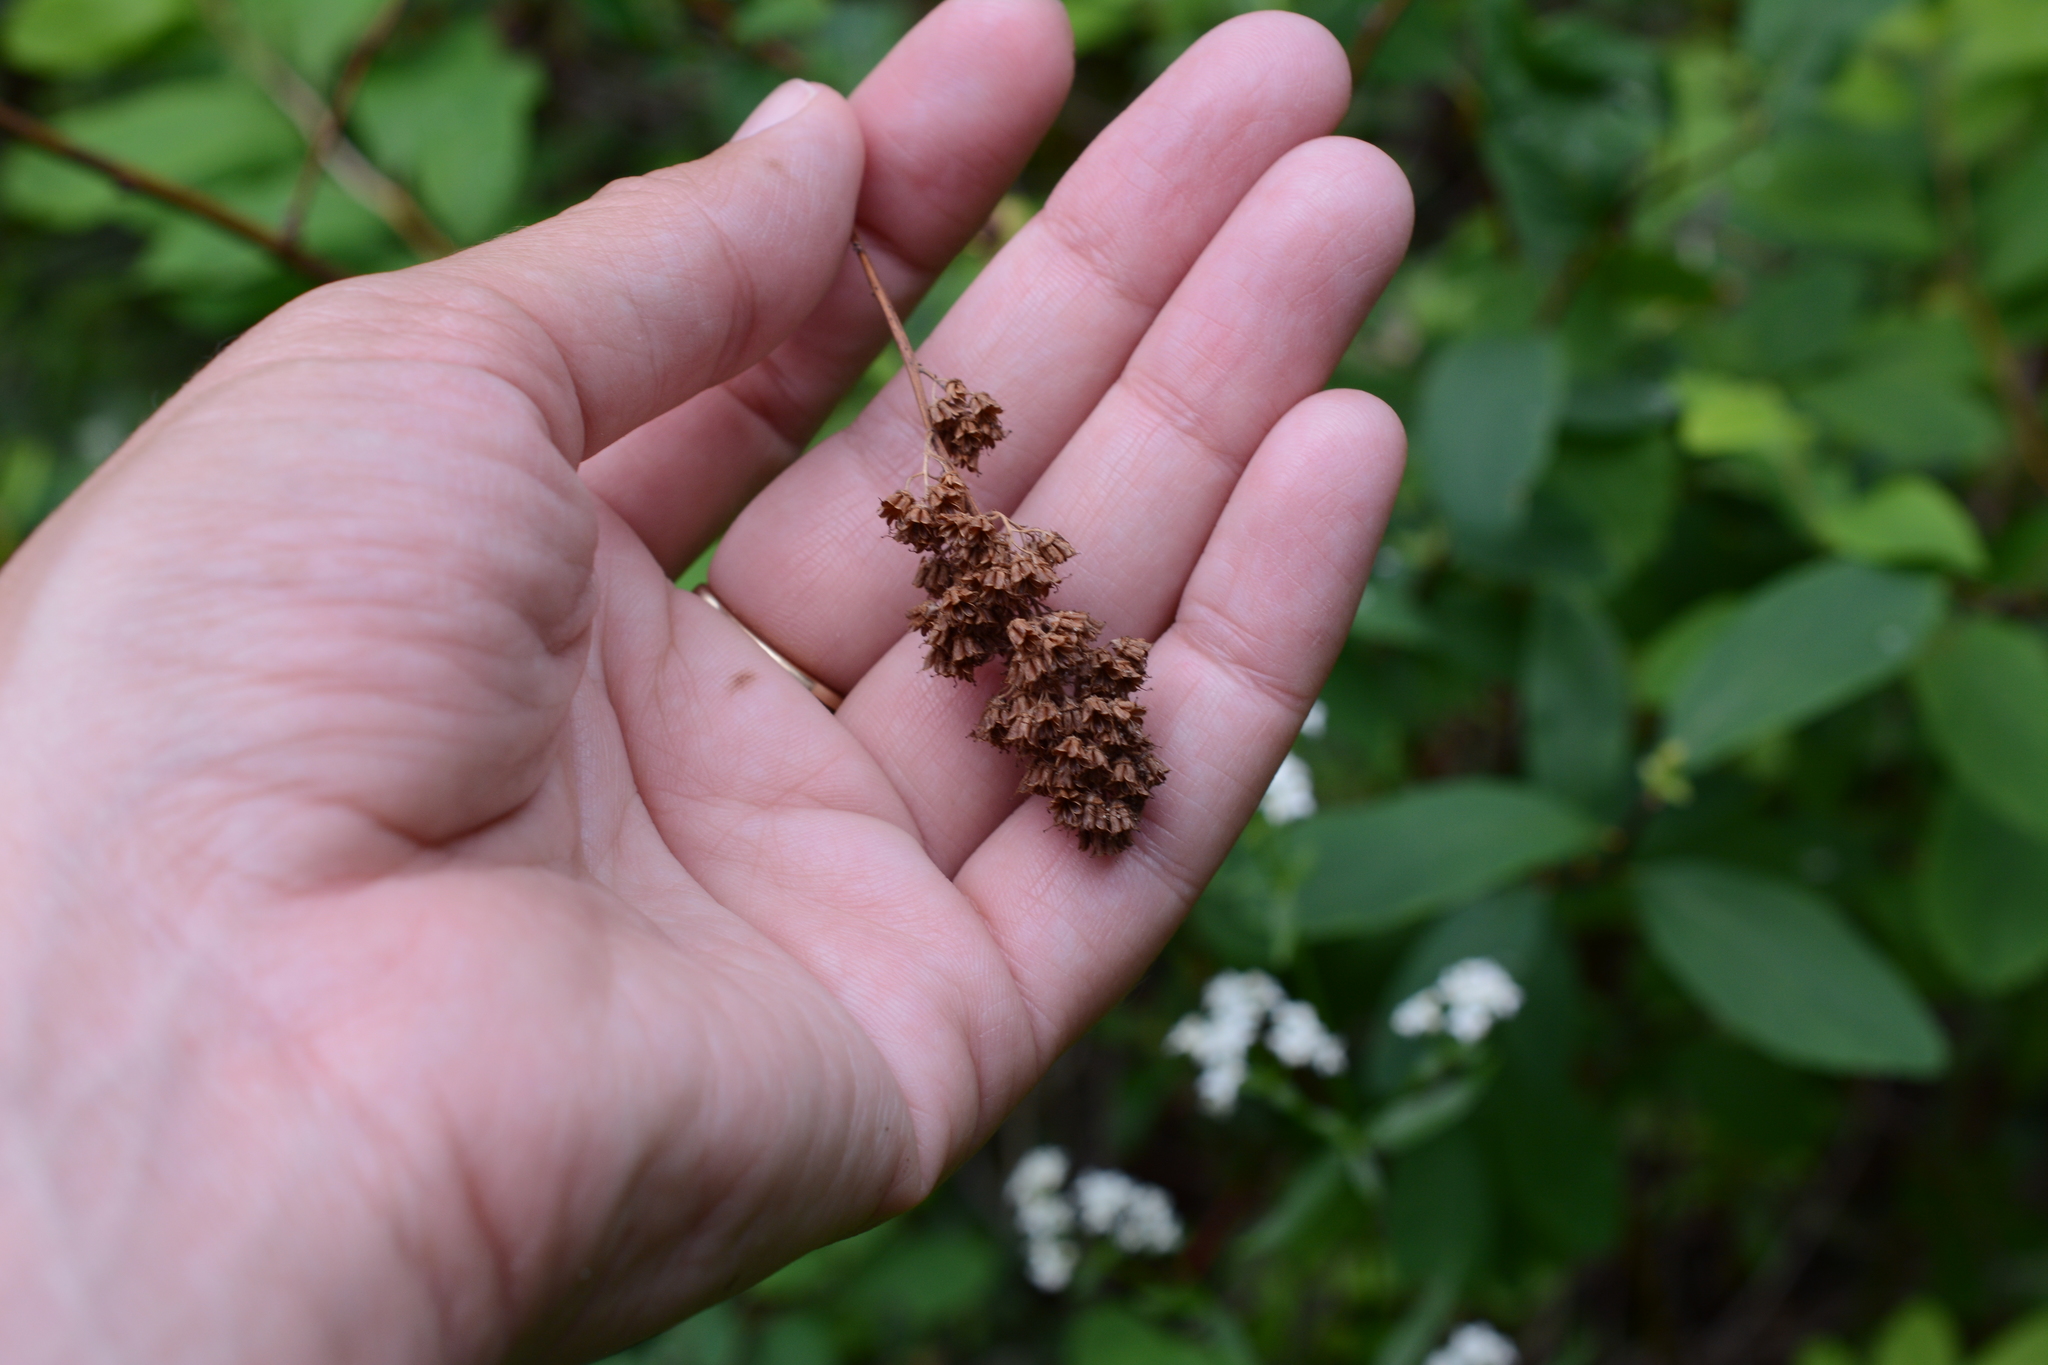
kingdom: Plantae
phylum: Tracheophyta
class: Magnoliopsida
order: Rosales
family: Rosaceae
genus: Spiraea
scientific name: Spiraea douglasii
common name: Steeplebush
